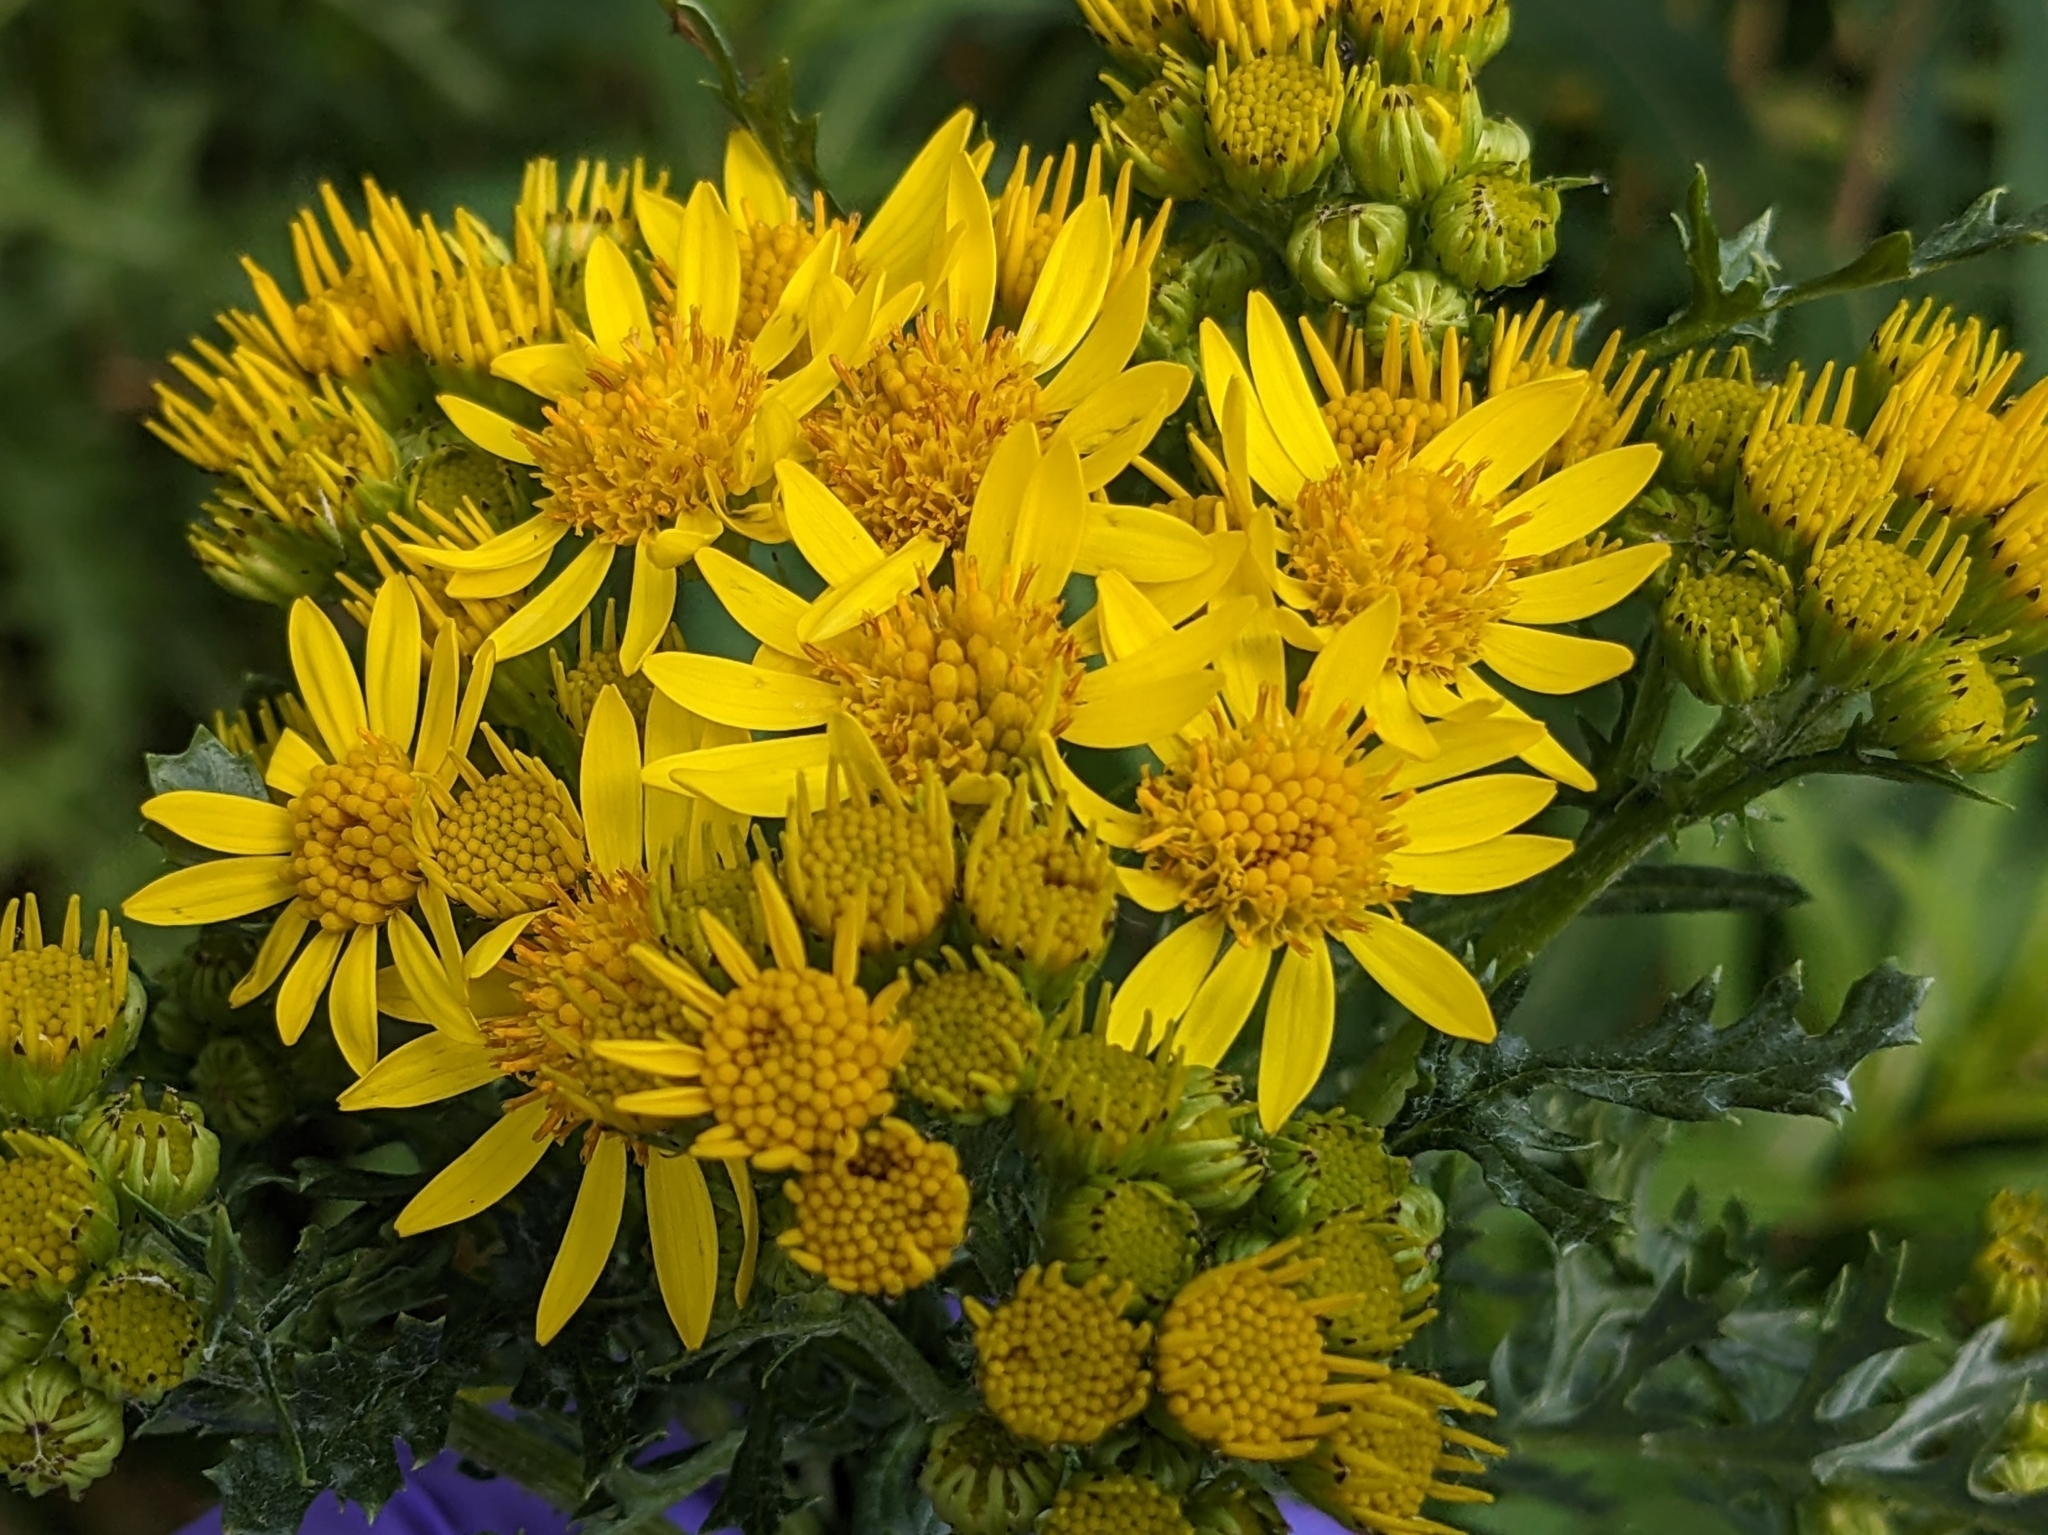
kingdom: Plantae
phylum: Tracheophyta
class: Magnoliopsida
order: Asterales
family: Asteraceae
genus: Jacobaea
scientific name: Jacobaea vulgaris
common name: Stinking willie
